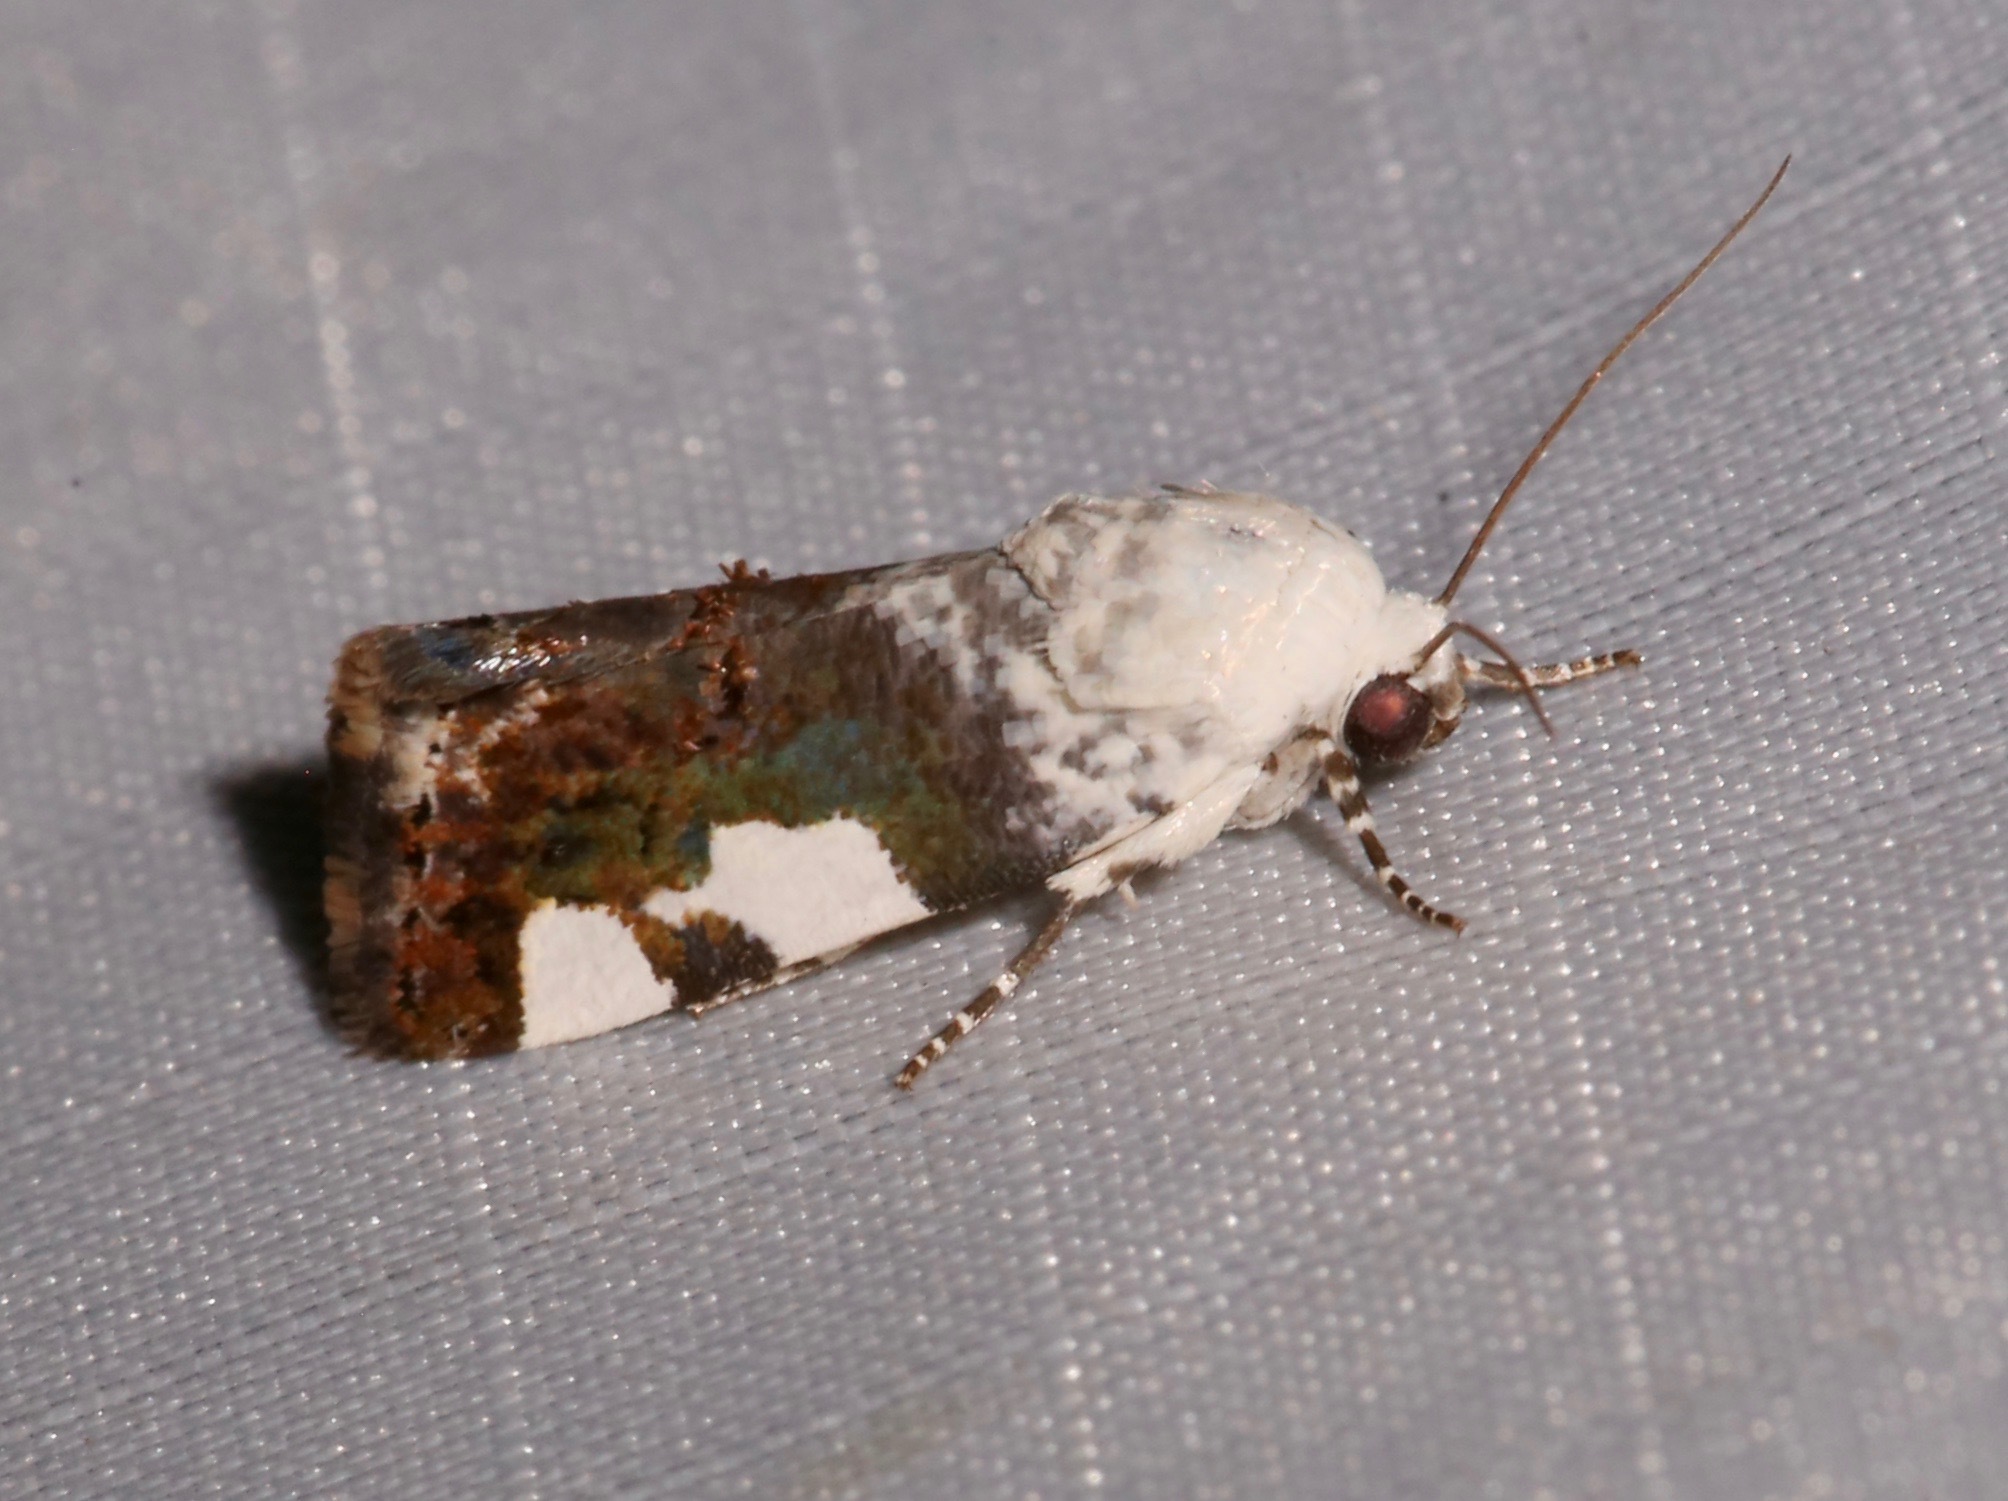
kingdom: Animalia
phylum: Arthropoda
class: Insecta
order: Lepidoptera
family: Noctuidae
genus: Acontia
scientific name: Acontia quadriplaga
